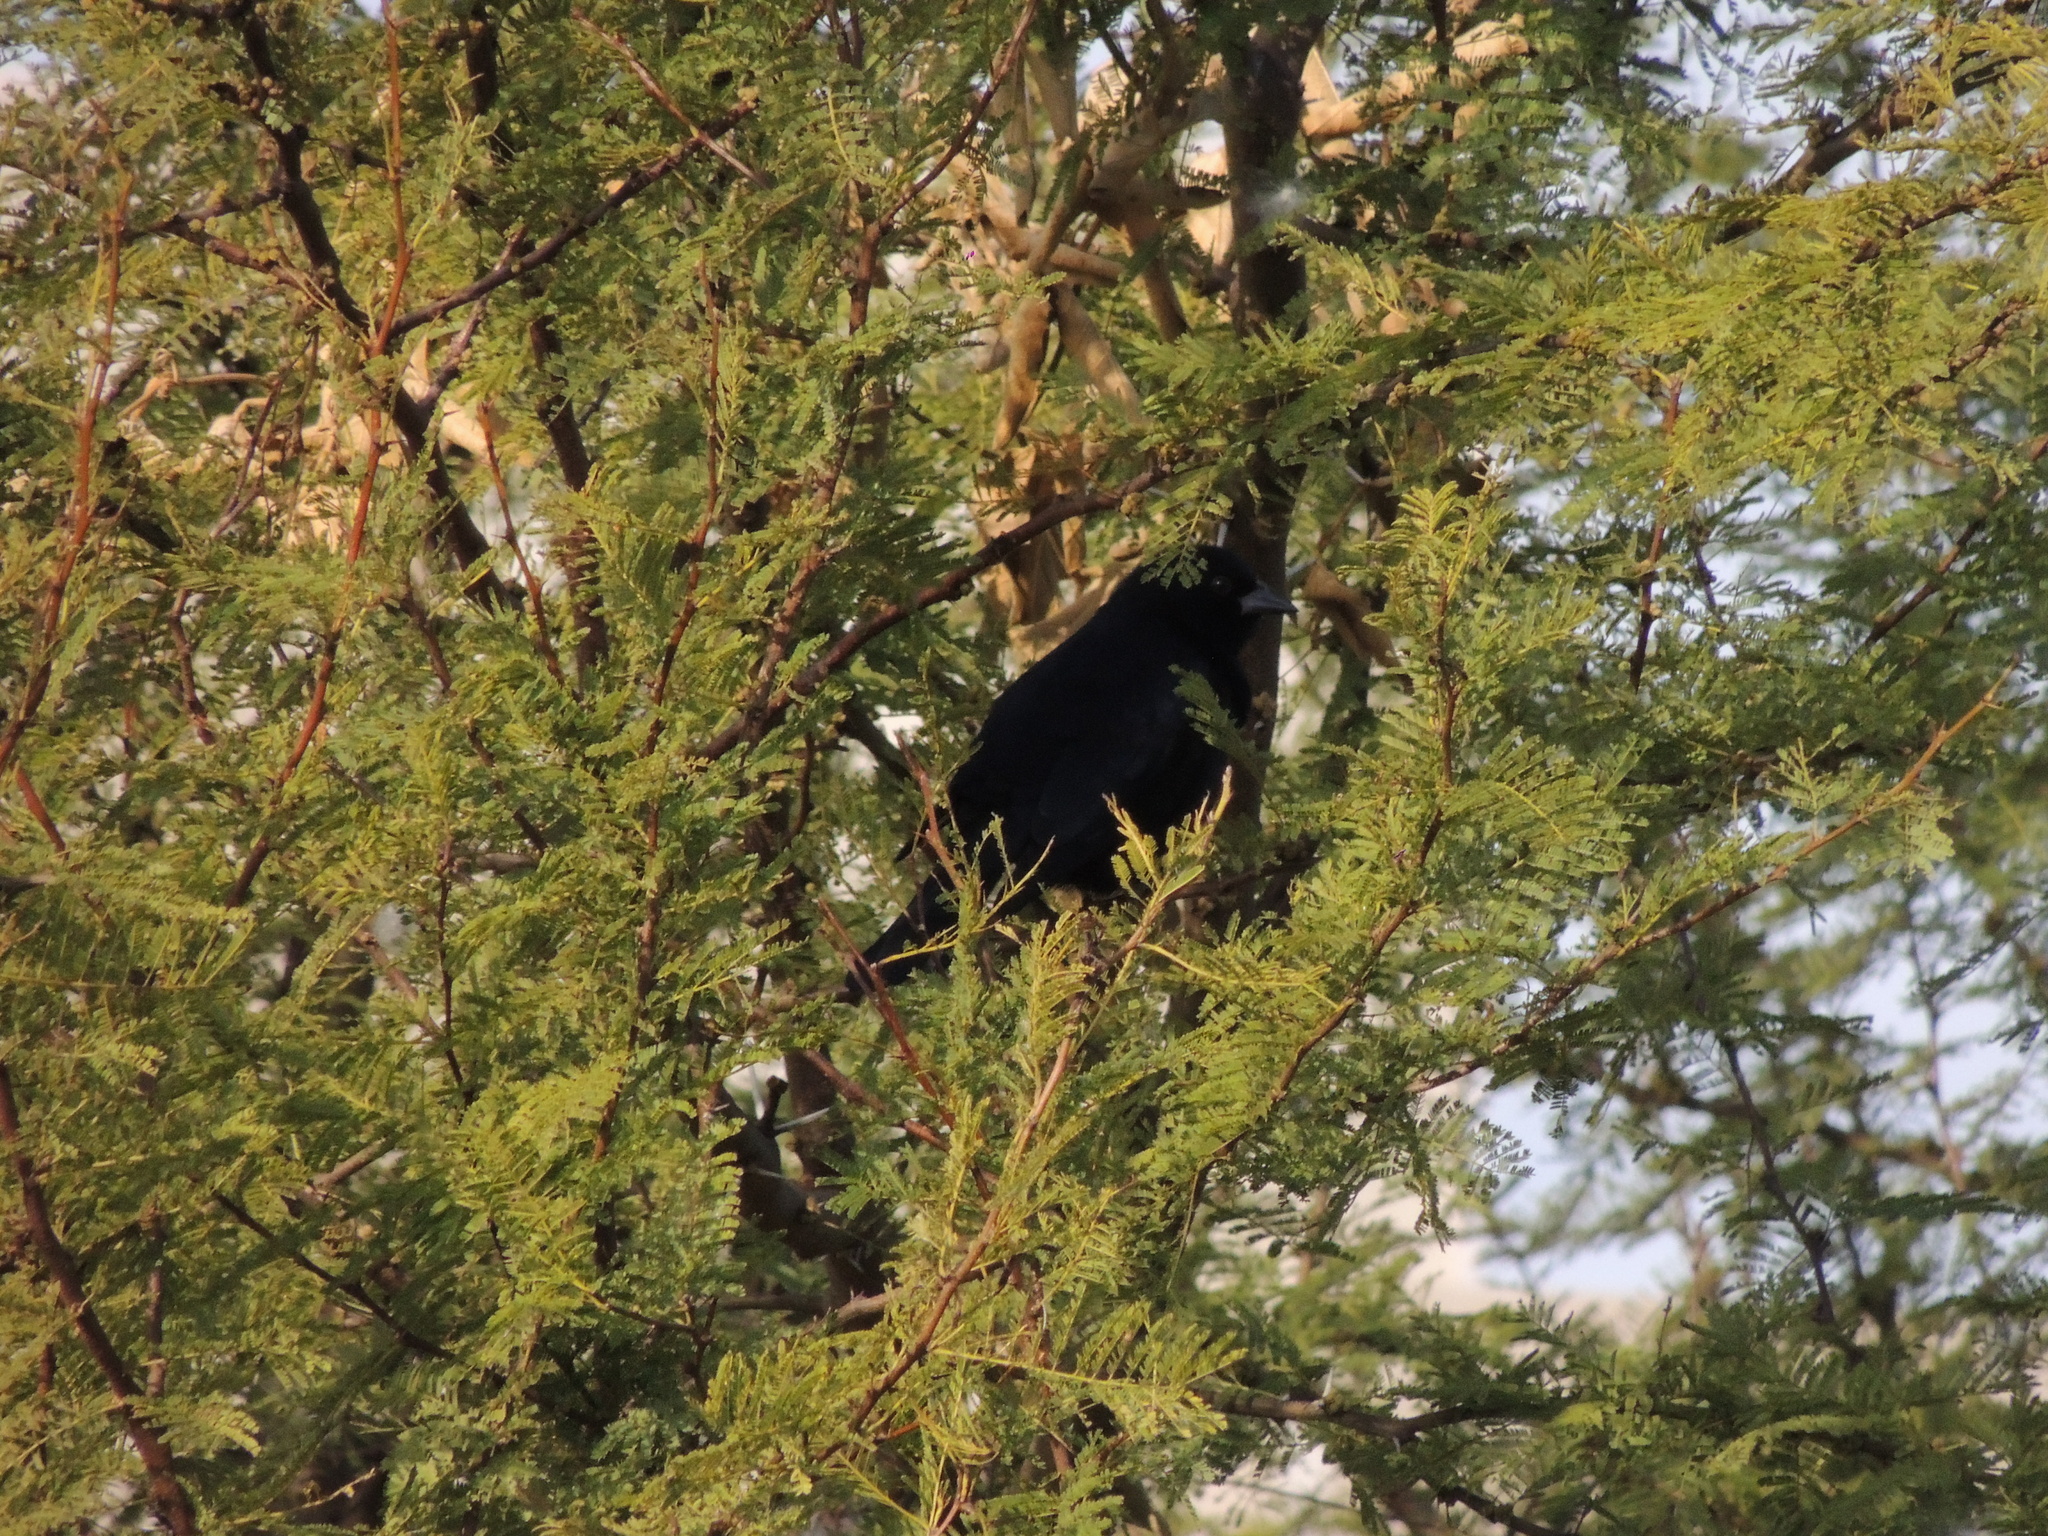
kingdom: Animalia
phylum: Chordata
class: Aves
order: Passeriformes
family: Icteridae
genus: Molothrus
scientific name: Molothrus rufoaxillaris
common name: Screaming cowbird
